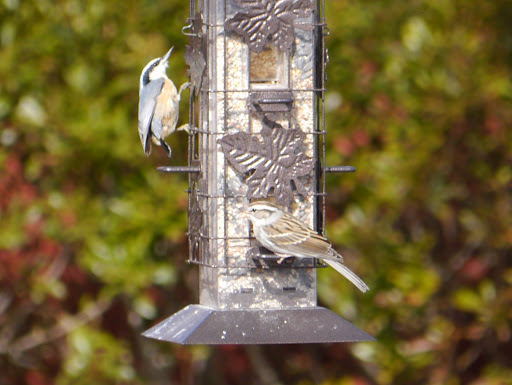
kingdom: Animalia
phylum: Chordata
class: Aves
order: Passeriformes
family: Sittidae
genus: Sitta
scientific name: Sitta canadensis
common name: Red-breasted nuthatch
